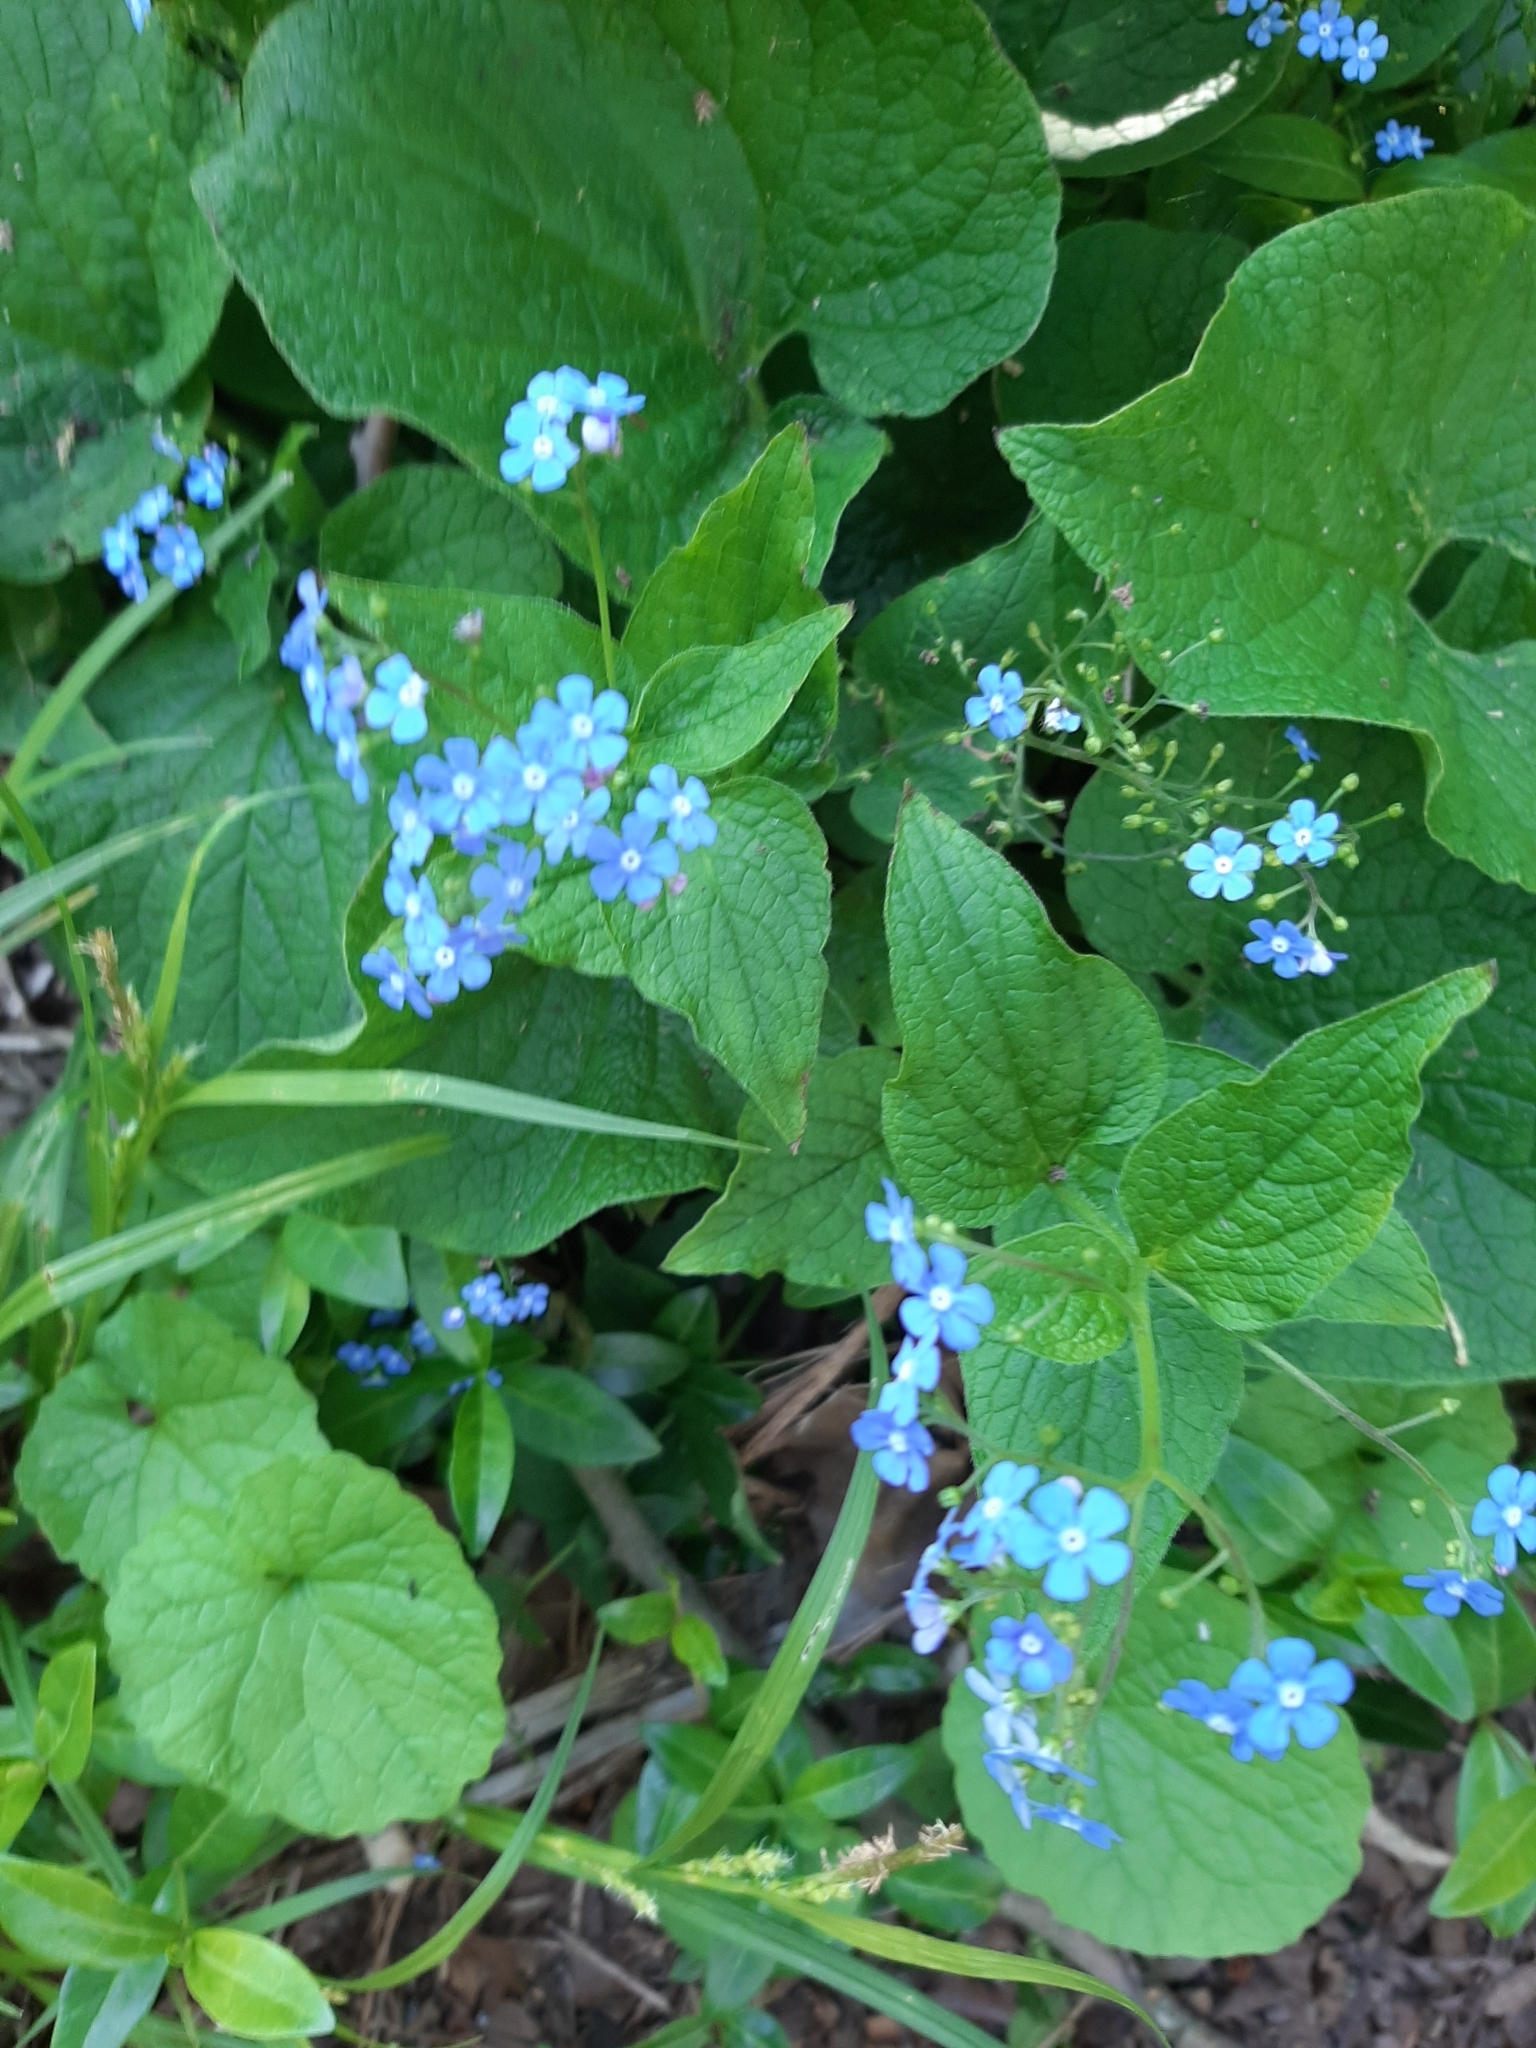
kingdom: Plantae
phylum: Tracheophyta
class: Magnoliopsida
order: Boraginales
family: Boraginaceae
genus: Brunnera
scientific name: Brunnera macrophylla
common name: Great forget-me-not
